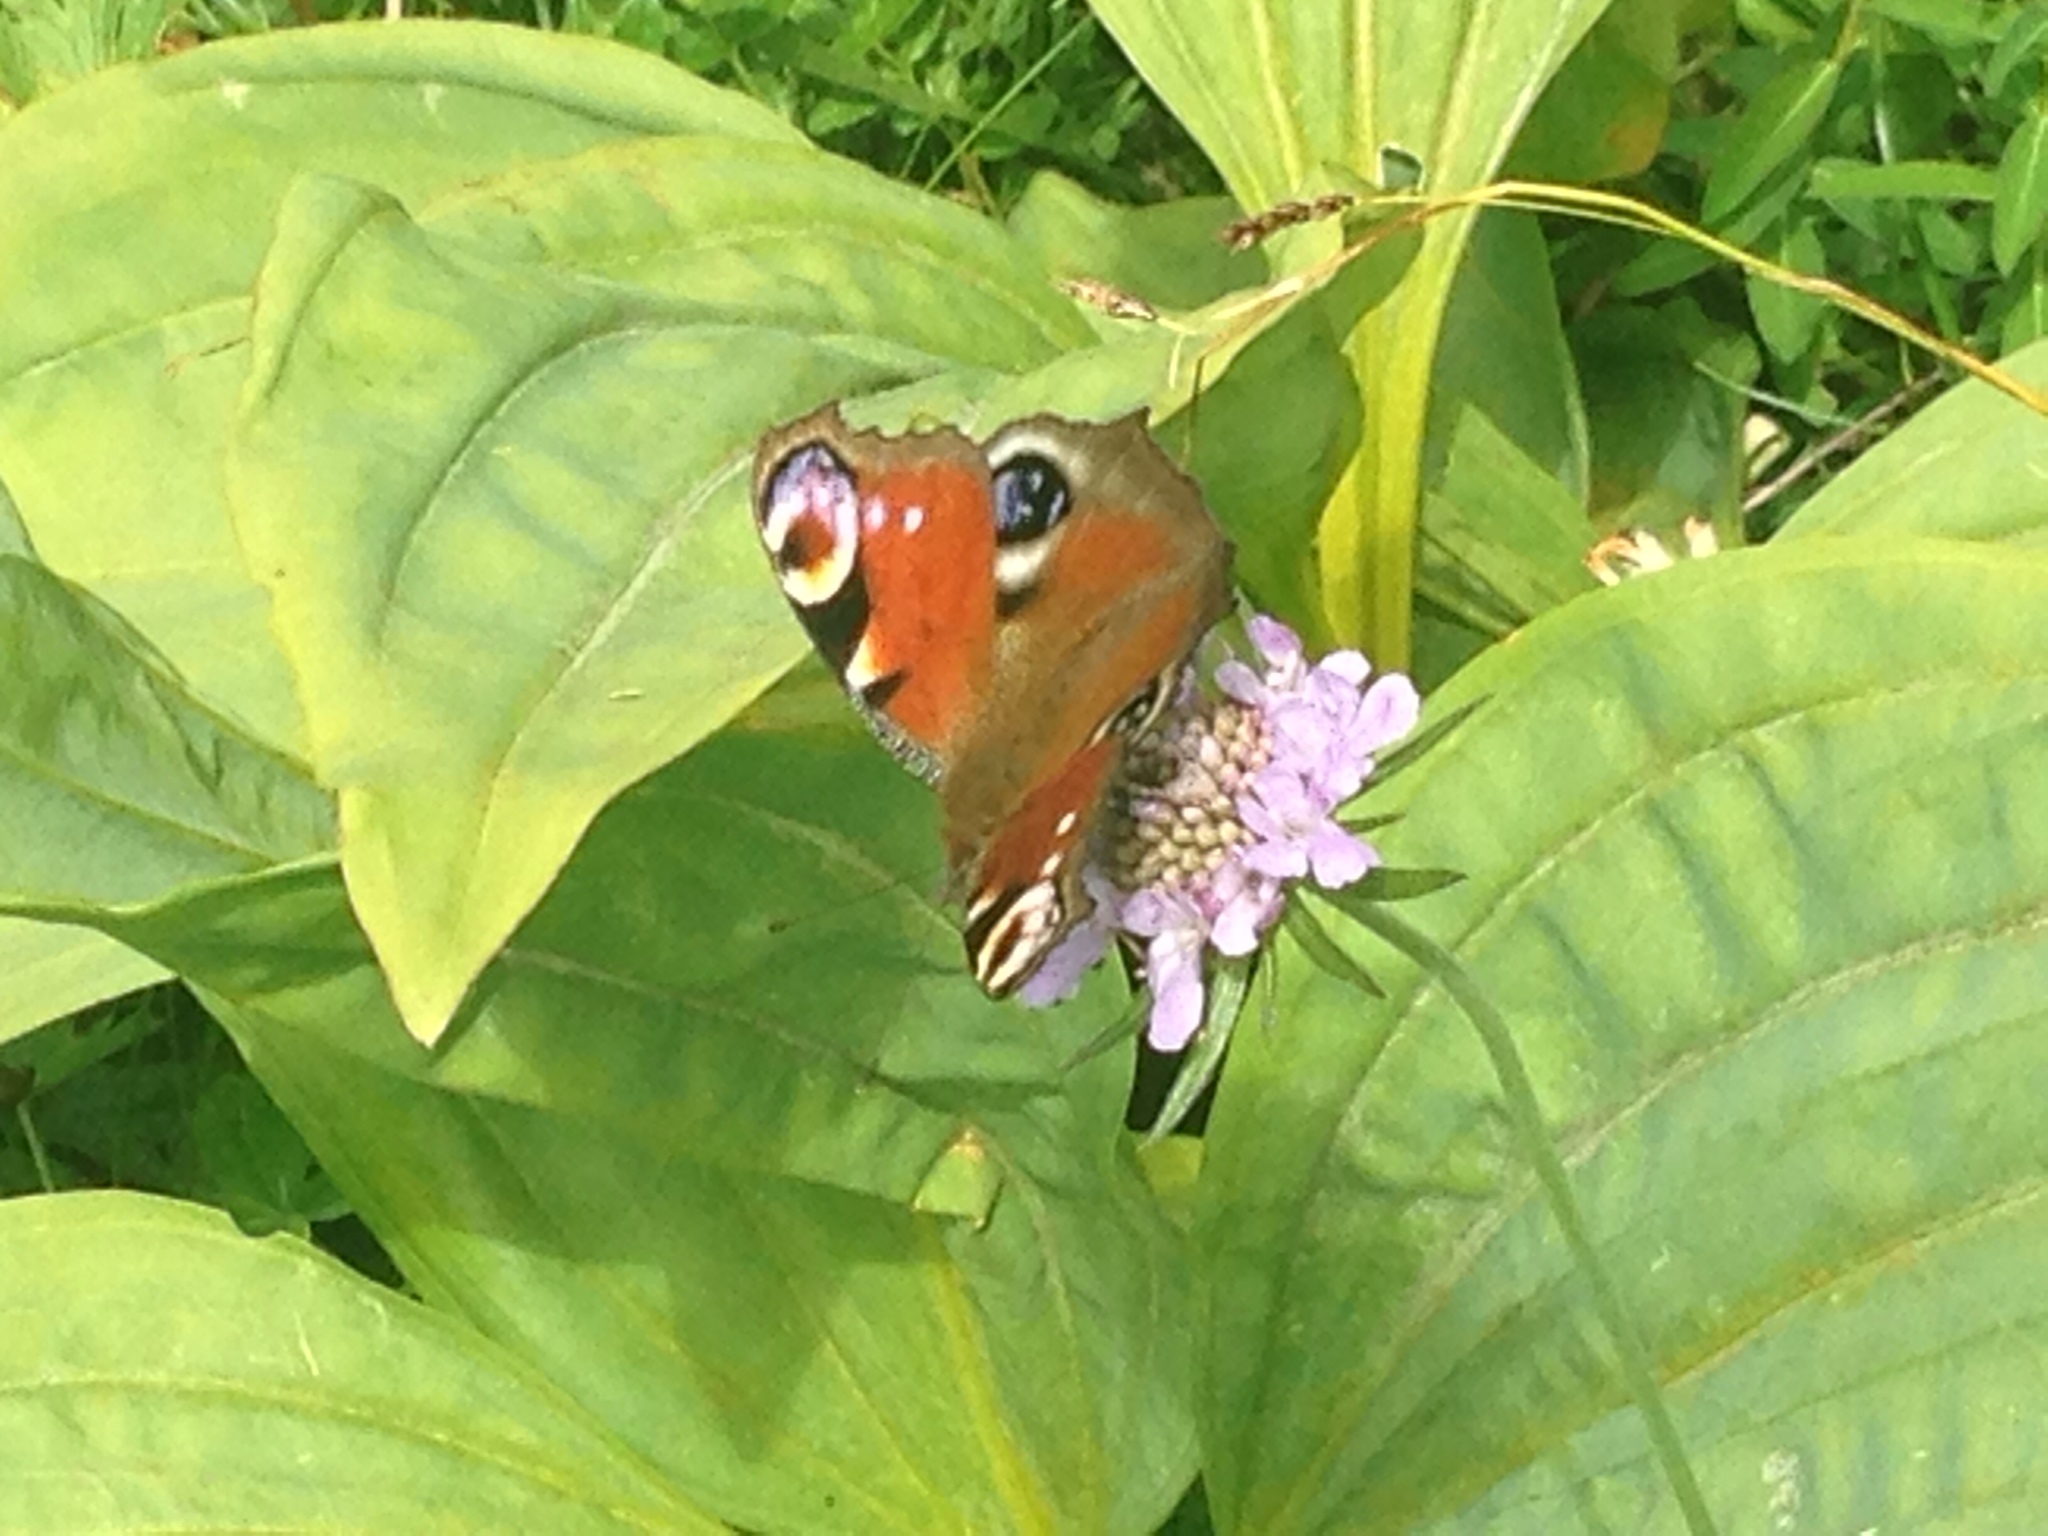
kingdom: Animalia
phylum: Arthropoda
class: Insecta
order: Lepidoptera
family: Nymphalidae
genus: Aglais
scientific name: Aglais io
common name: Peacock
